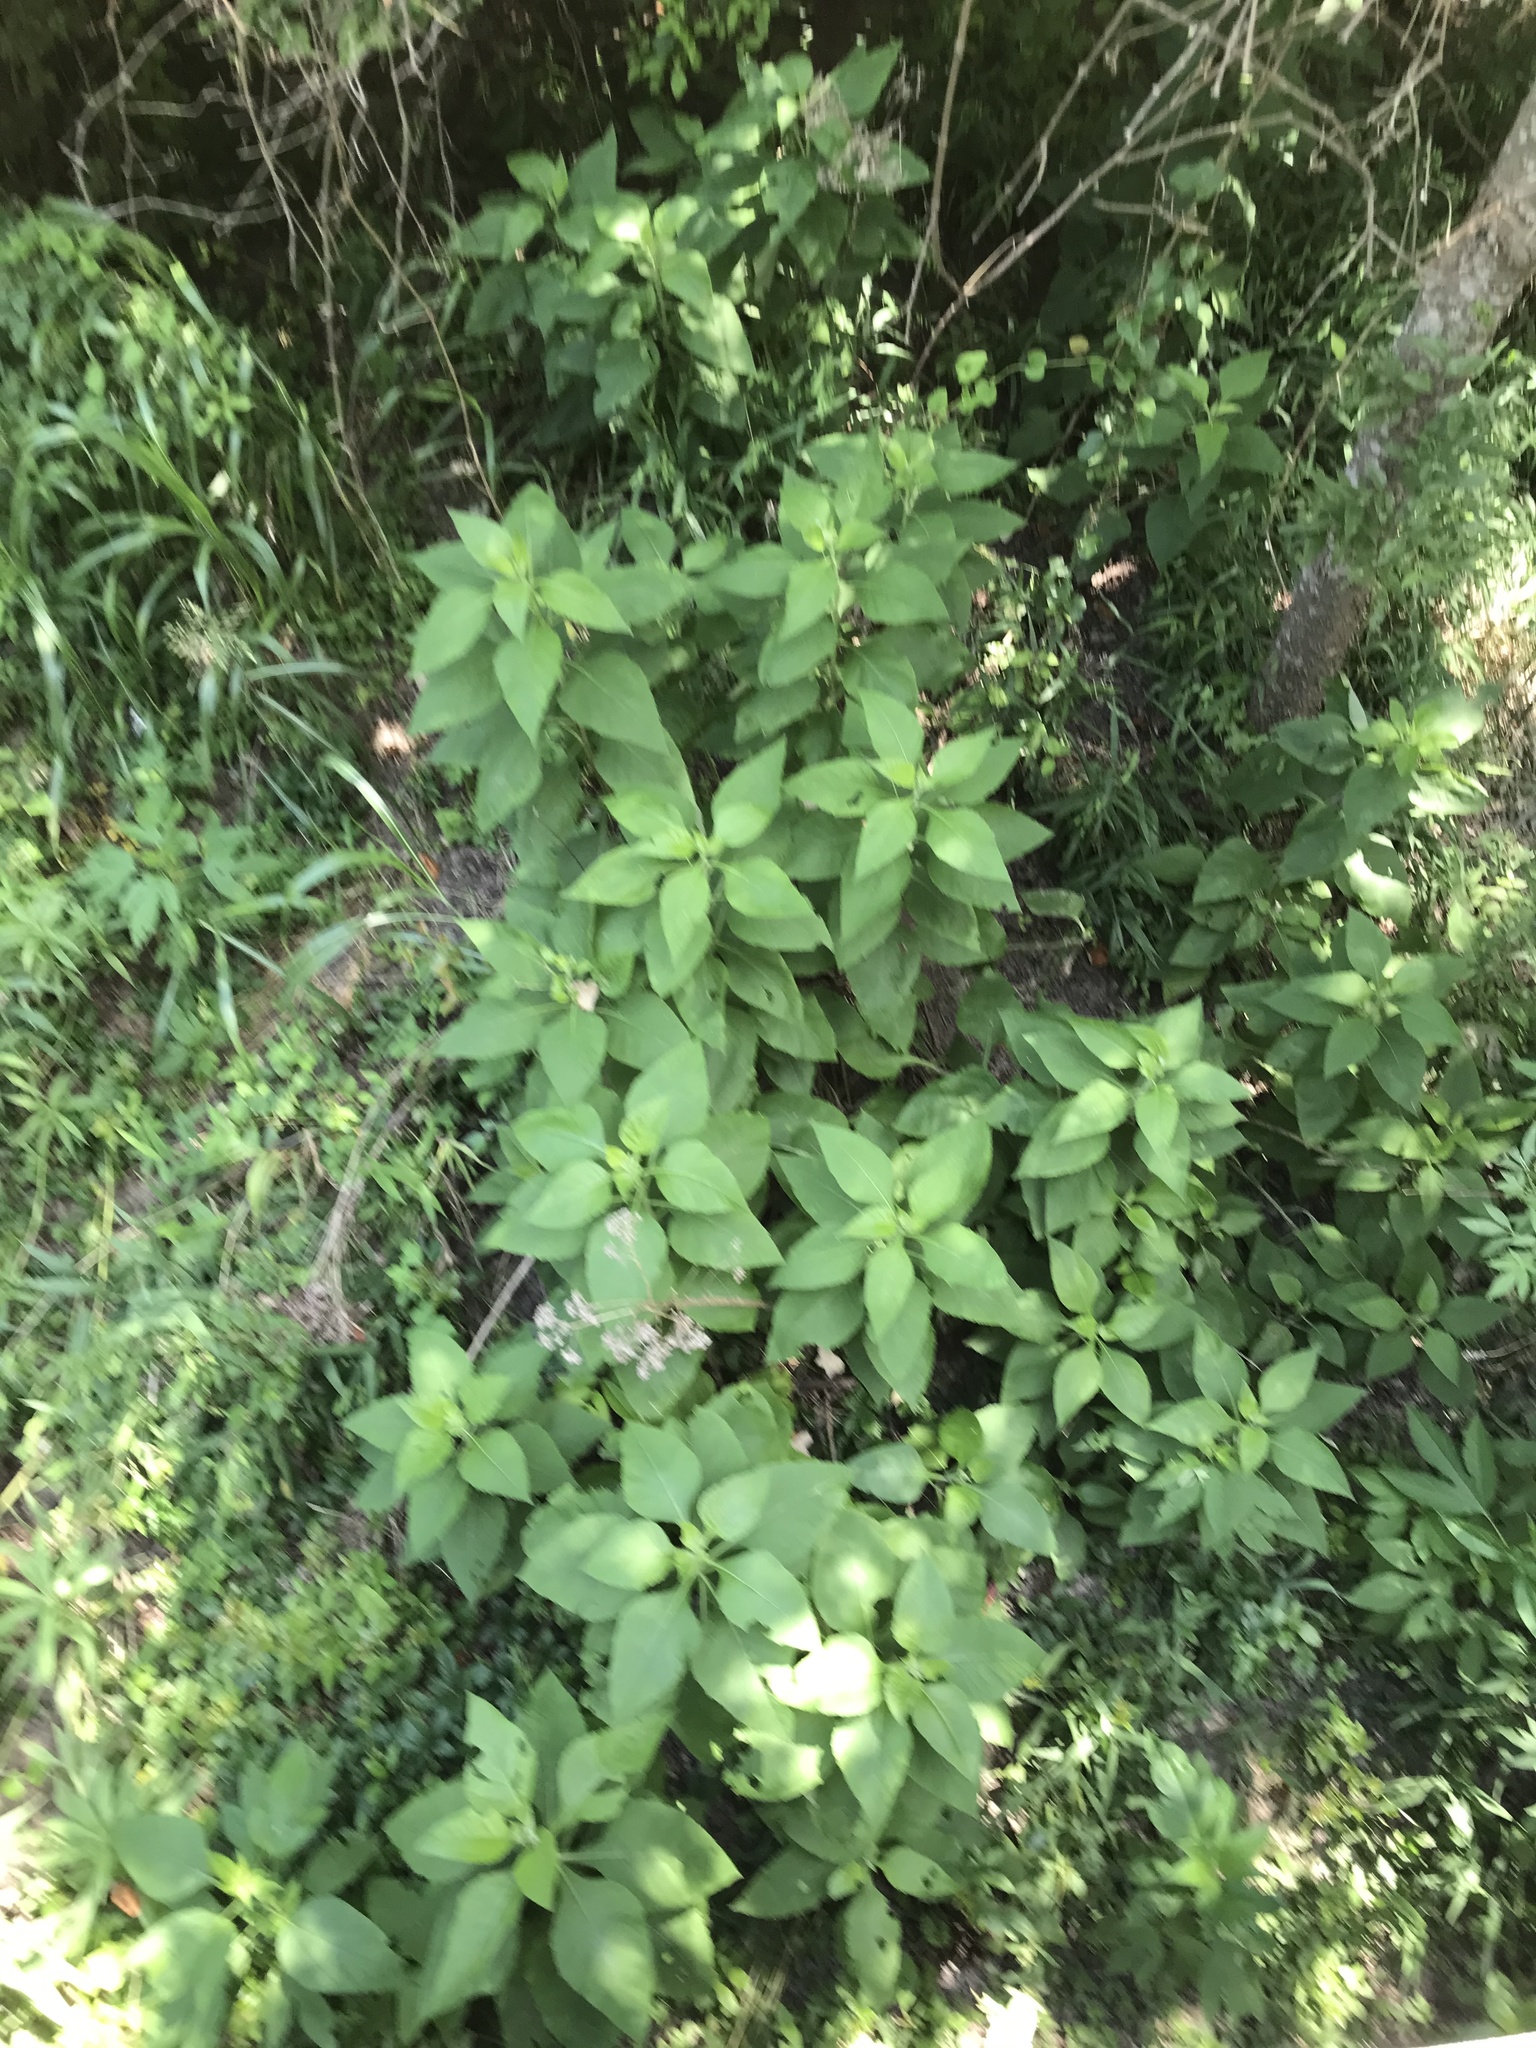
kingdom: Plantae
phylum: Tracheophyta
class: Magnoliopsida
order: Asterales
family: Asteraceae
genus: Verbesina
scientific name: Verbesina virginica
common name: Frostweed
